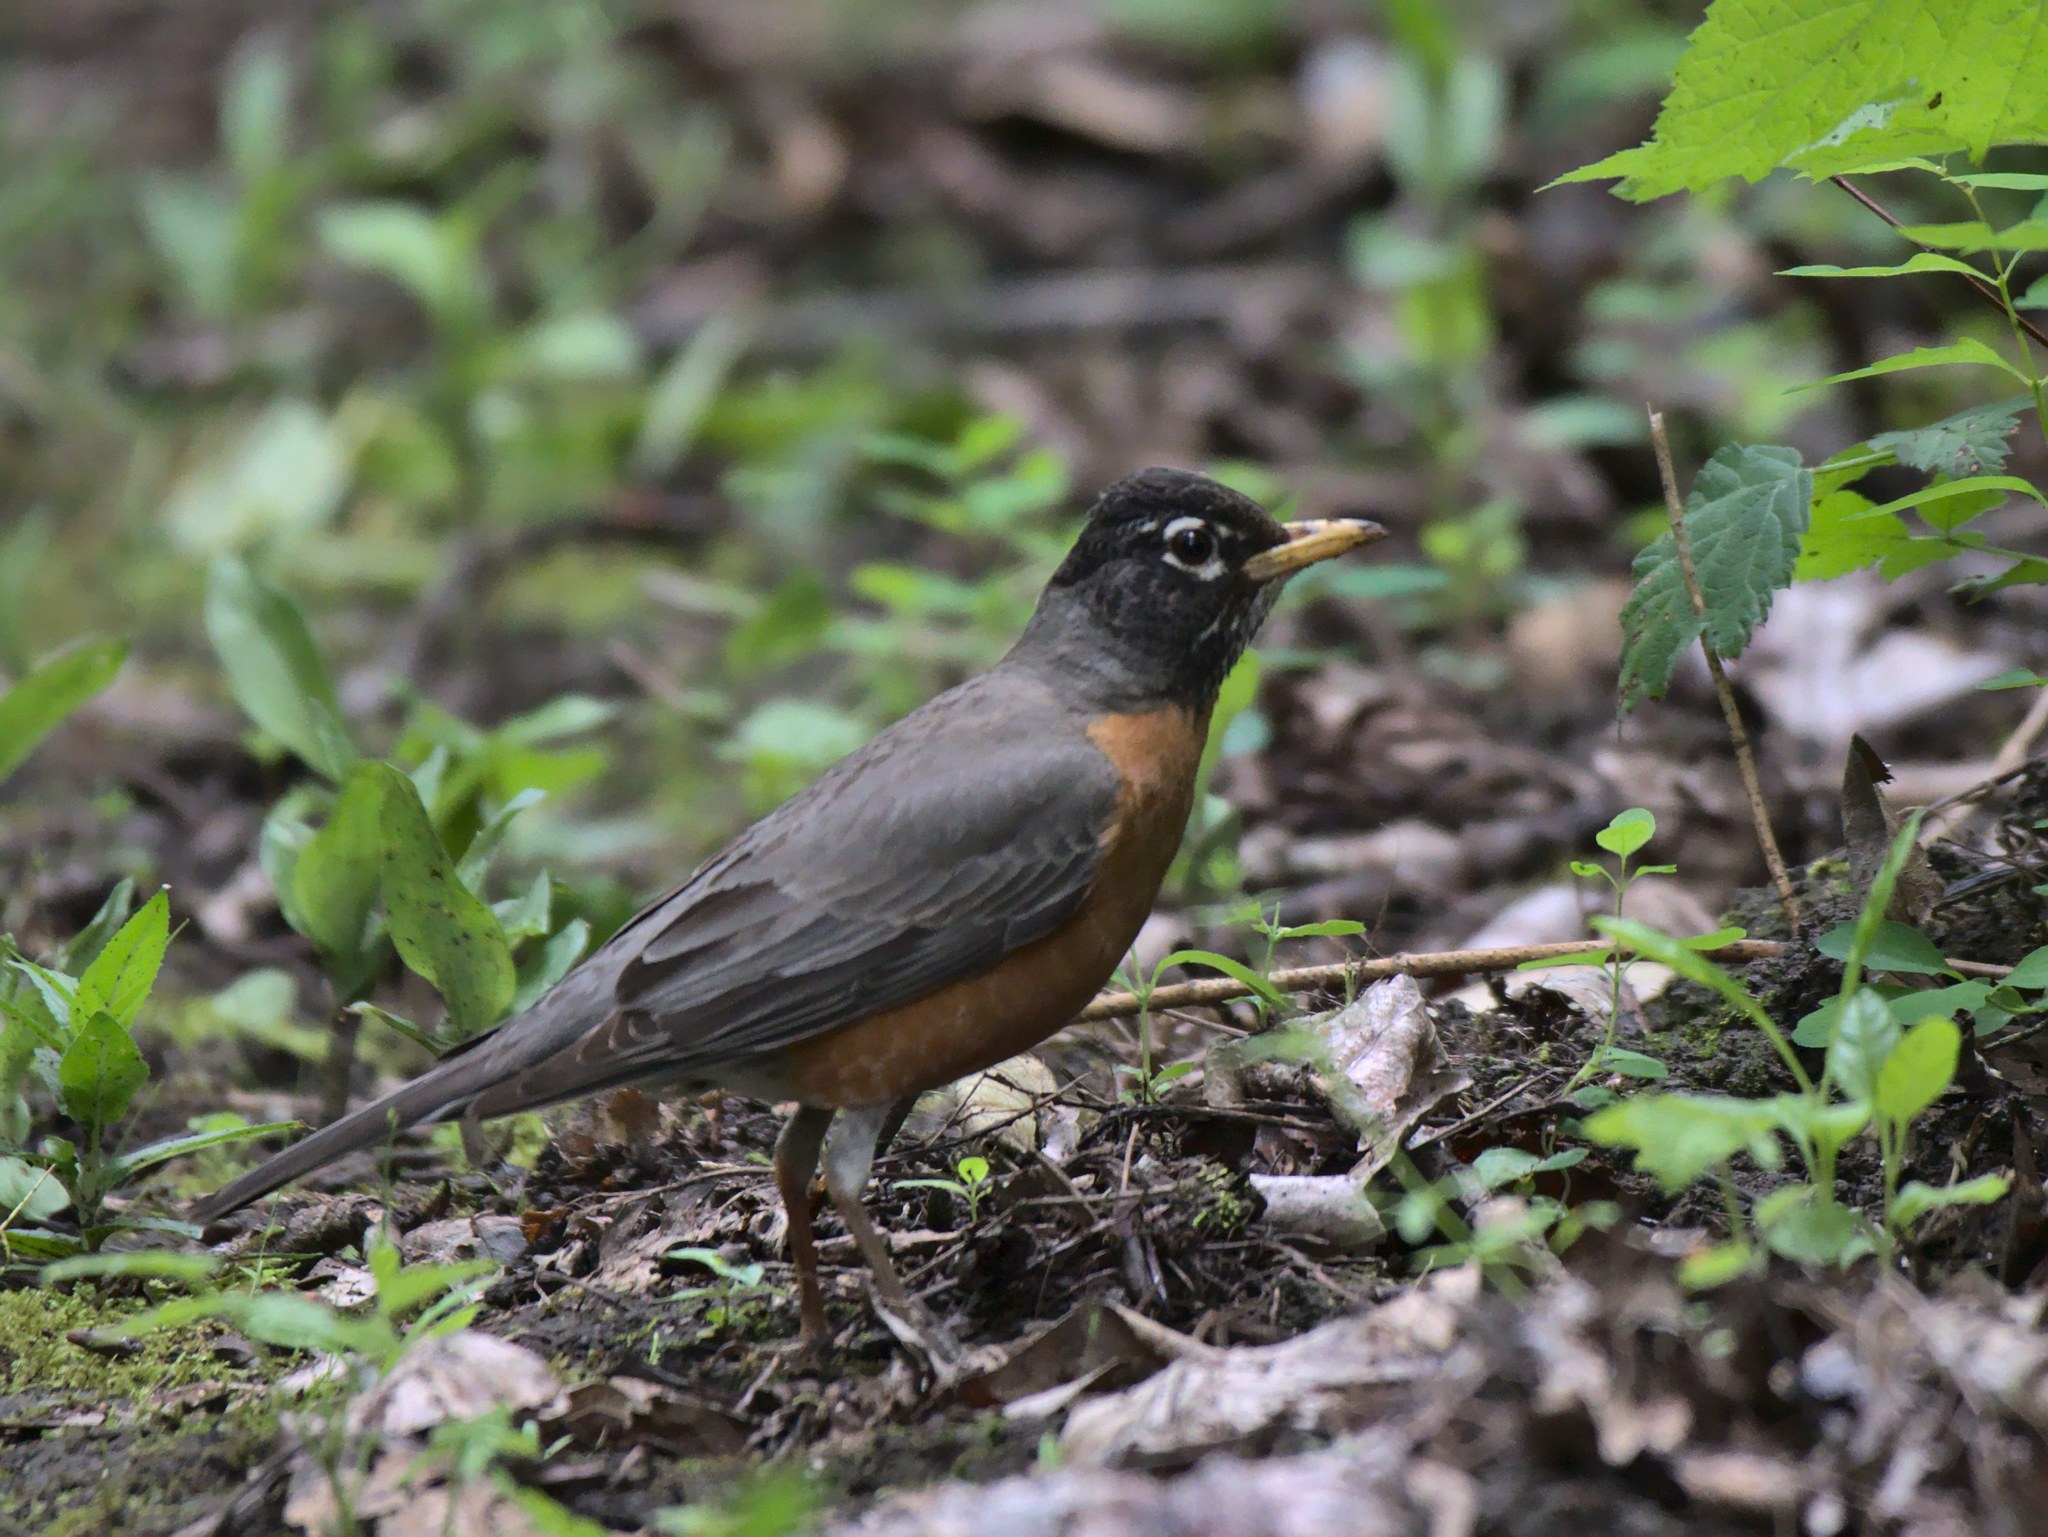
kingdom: Animalia
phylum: Chordata
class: Aves
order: Passeriformes
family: Turdidae
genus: Turdus
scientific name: Turdus migratorius
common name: American robin
